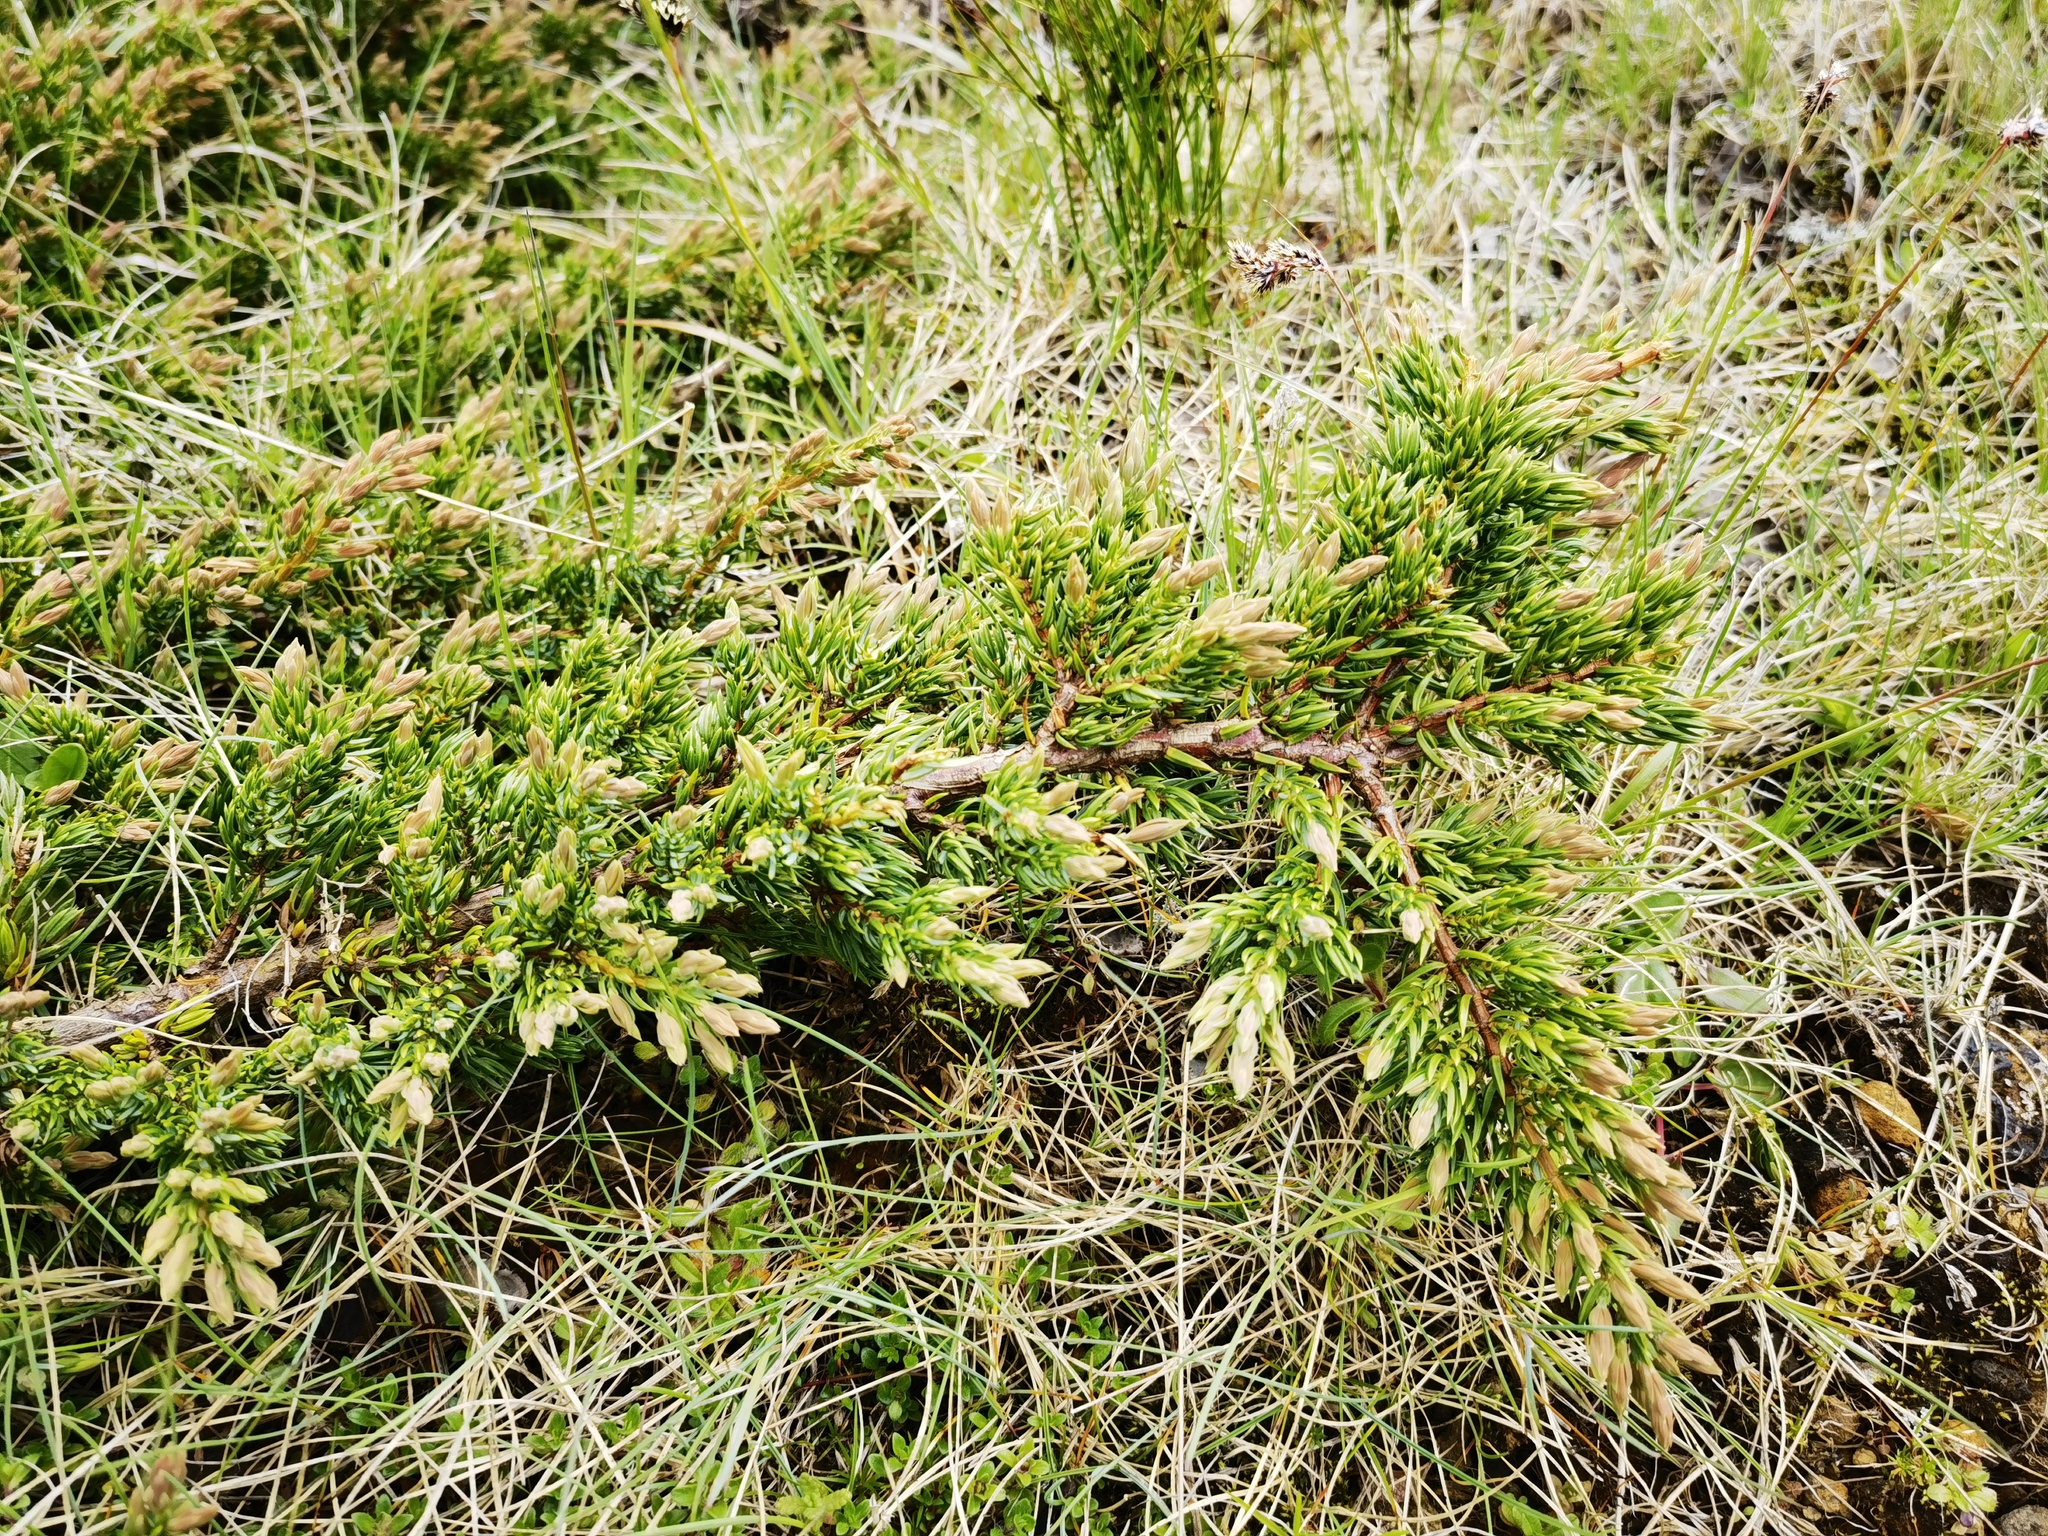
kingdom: Plantae
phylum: Tracheophyta
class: Pinopsida
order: Pinales
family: Cupressaceae
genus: Juniperus
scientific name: Juniperus communis
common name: Common juniper
